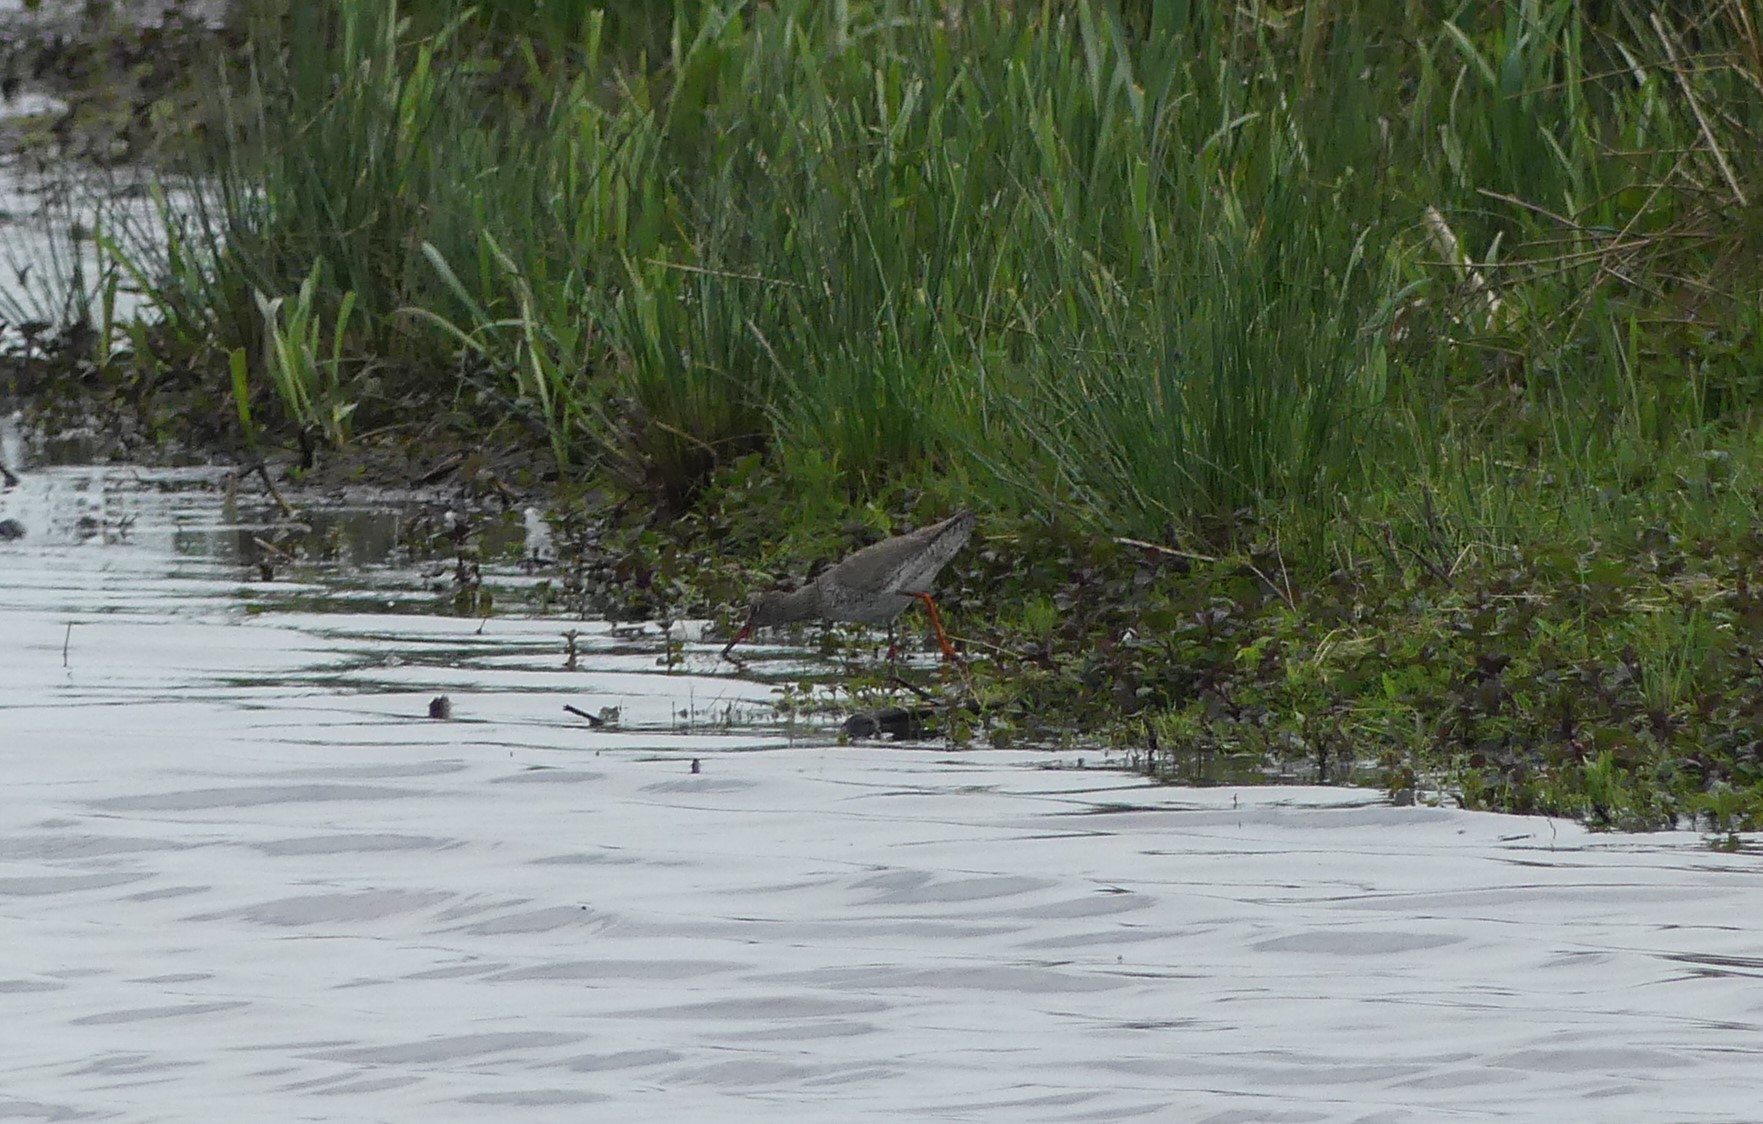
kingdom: Animalia
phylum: Chordata
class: Aves
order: Charadriiformes
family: Scolopacidae
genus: Tringa
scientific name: Tringa totanus
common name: Common redshank
